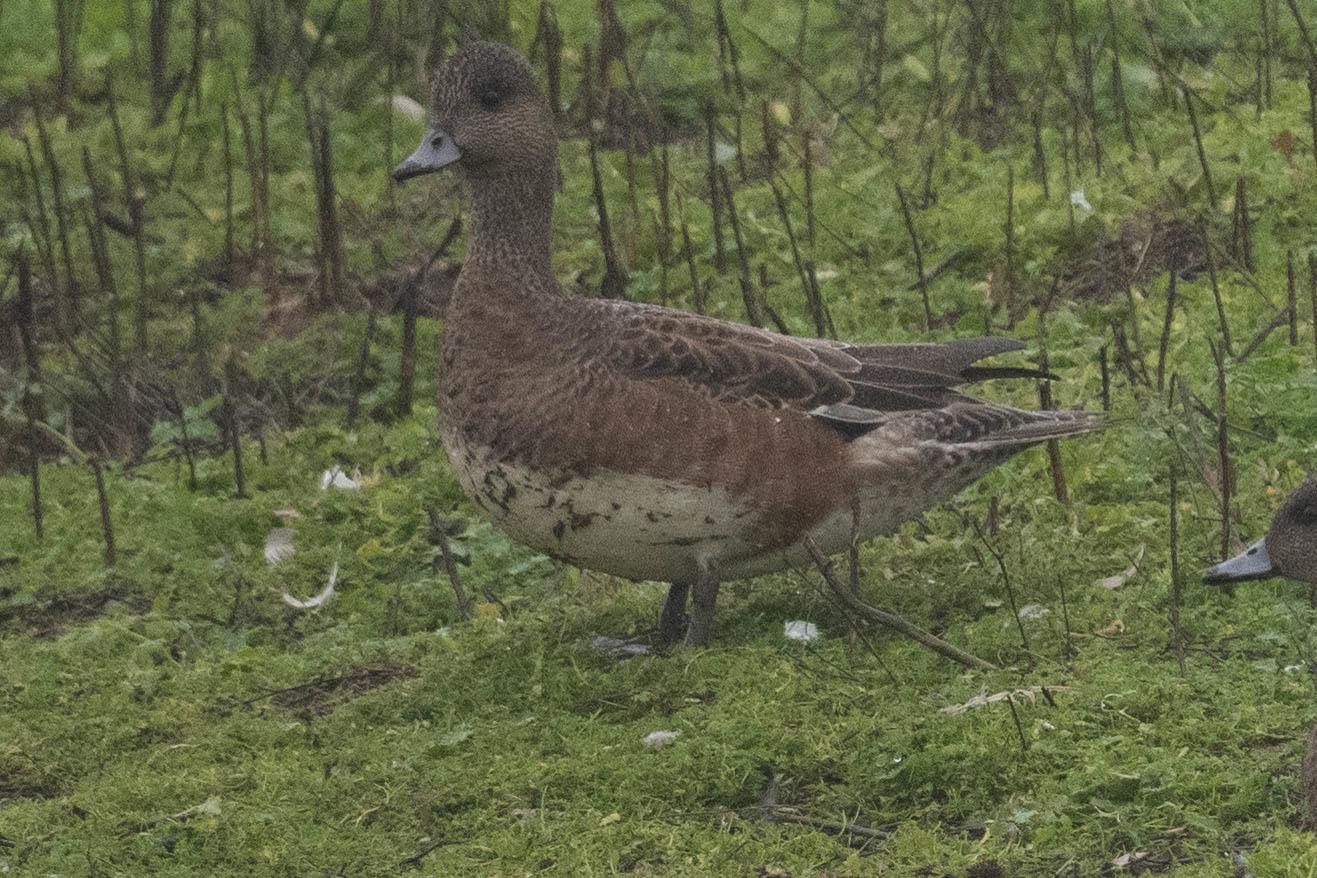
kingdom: Animalia
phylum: Chordata
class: Aves
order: Anseriformes
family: Anatidae
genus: Mareca
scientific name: Mareca americana
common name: American wigeon
